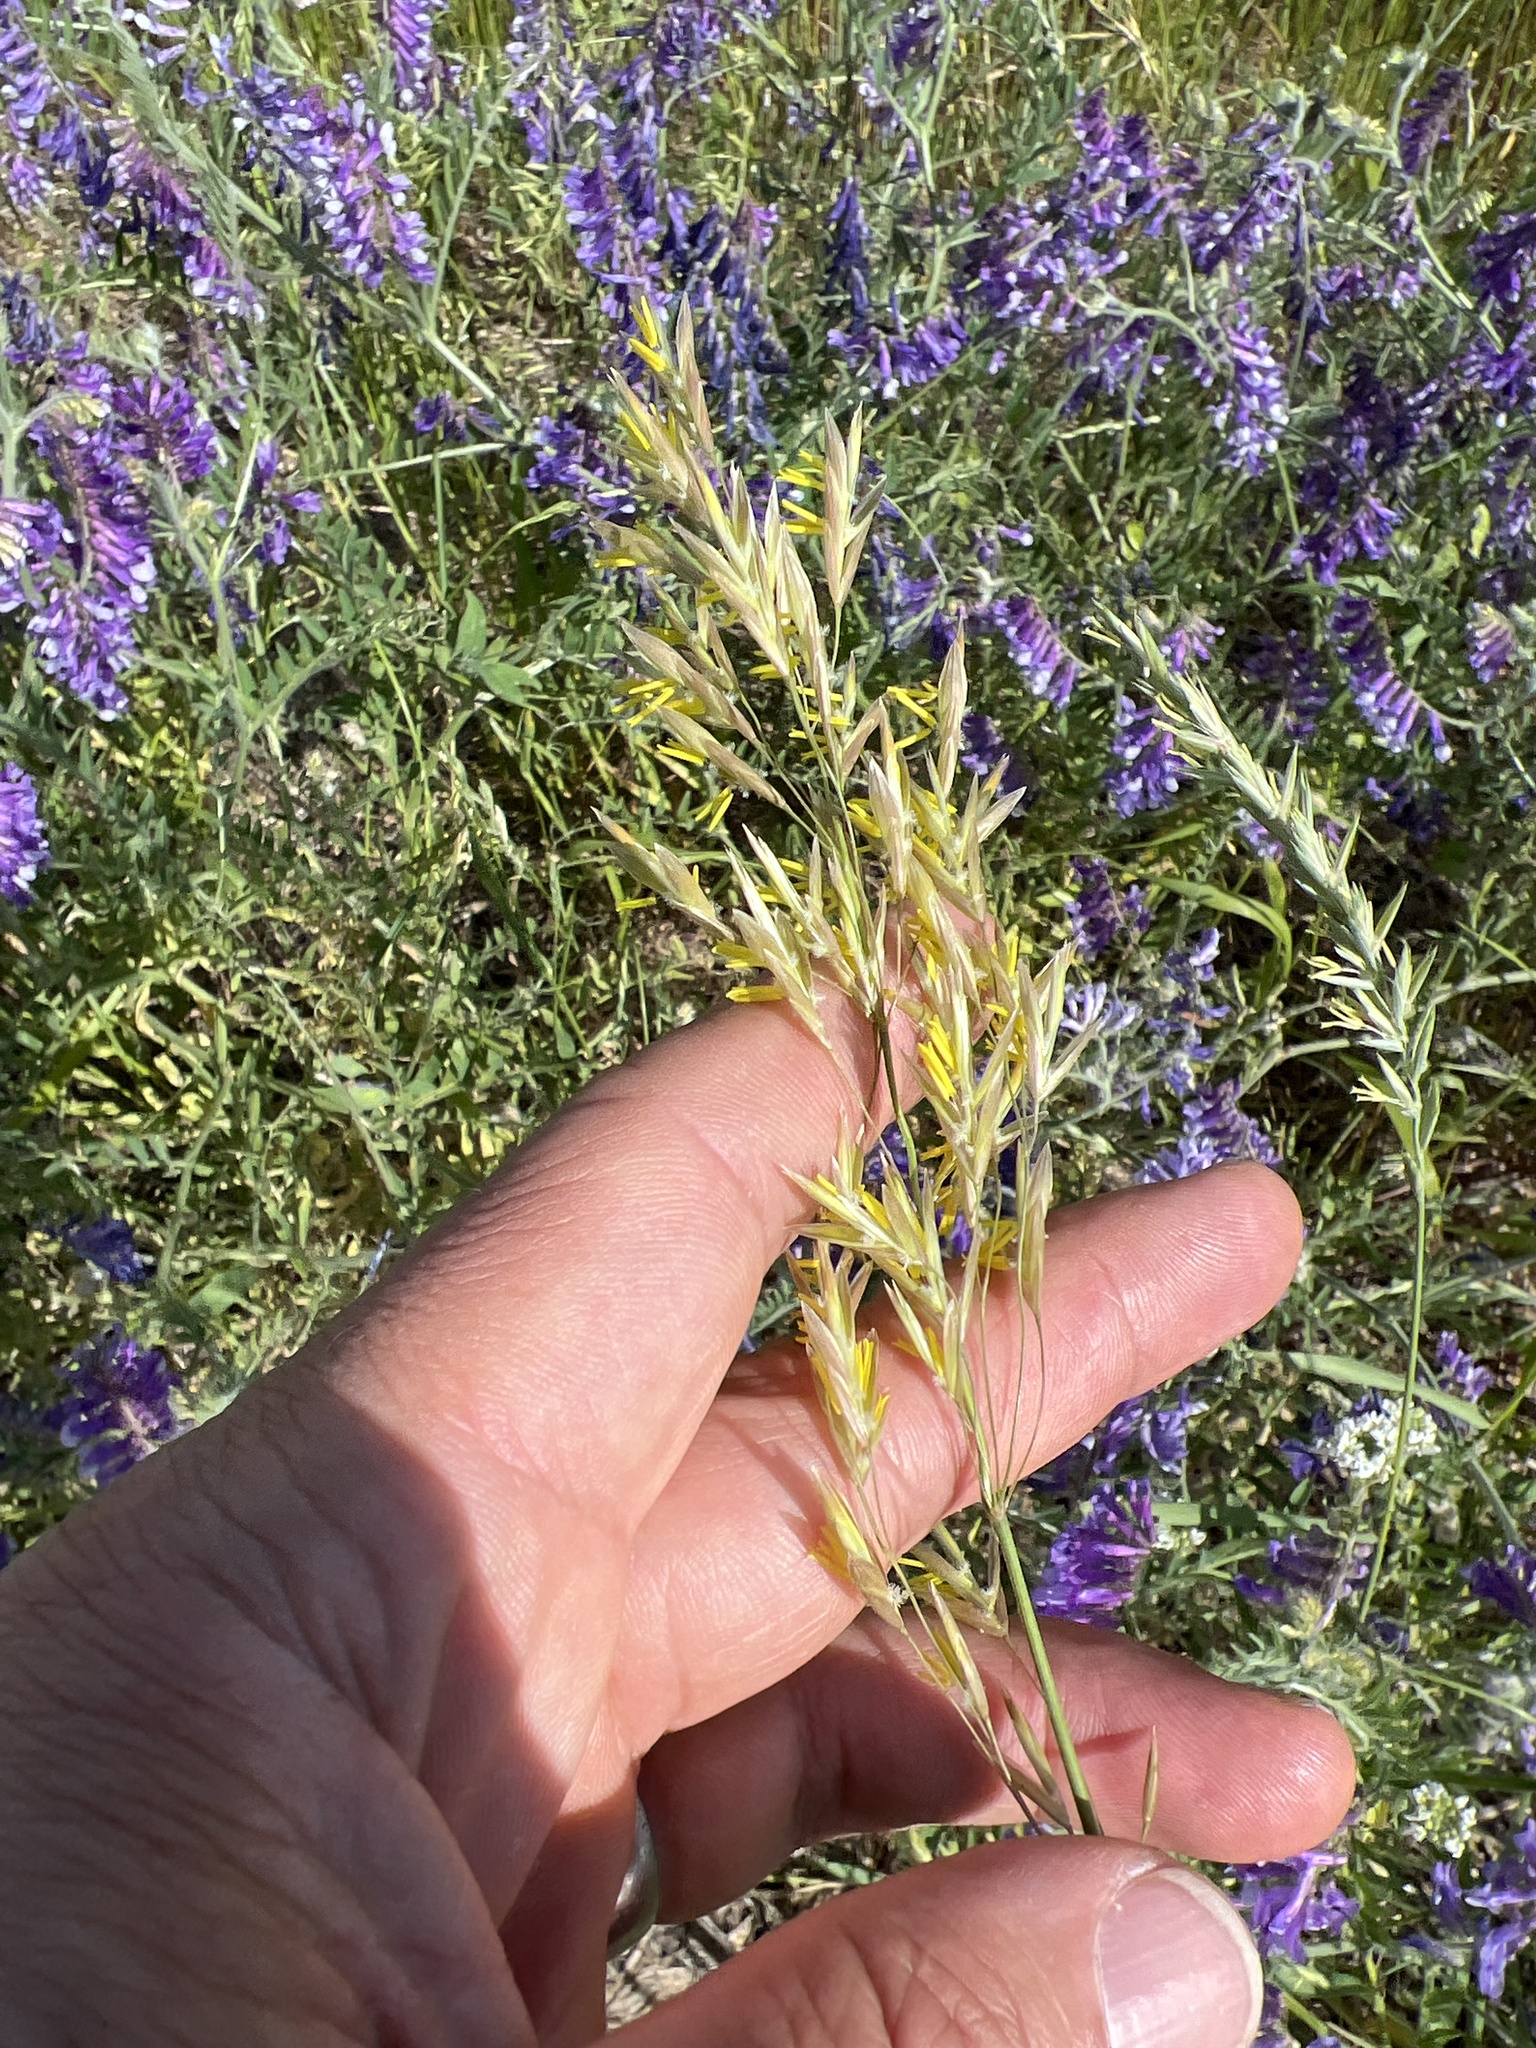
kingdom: Plantae
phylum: Tracheophyta
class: Liliopsida
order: Poales
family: Poaceae
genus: Bromus
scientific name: Bromus inermis
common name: Smooth brome
